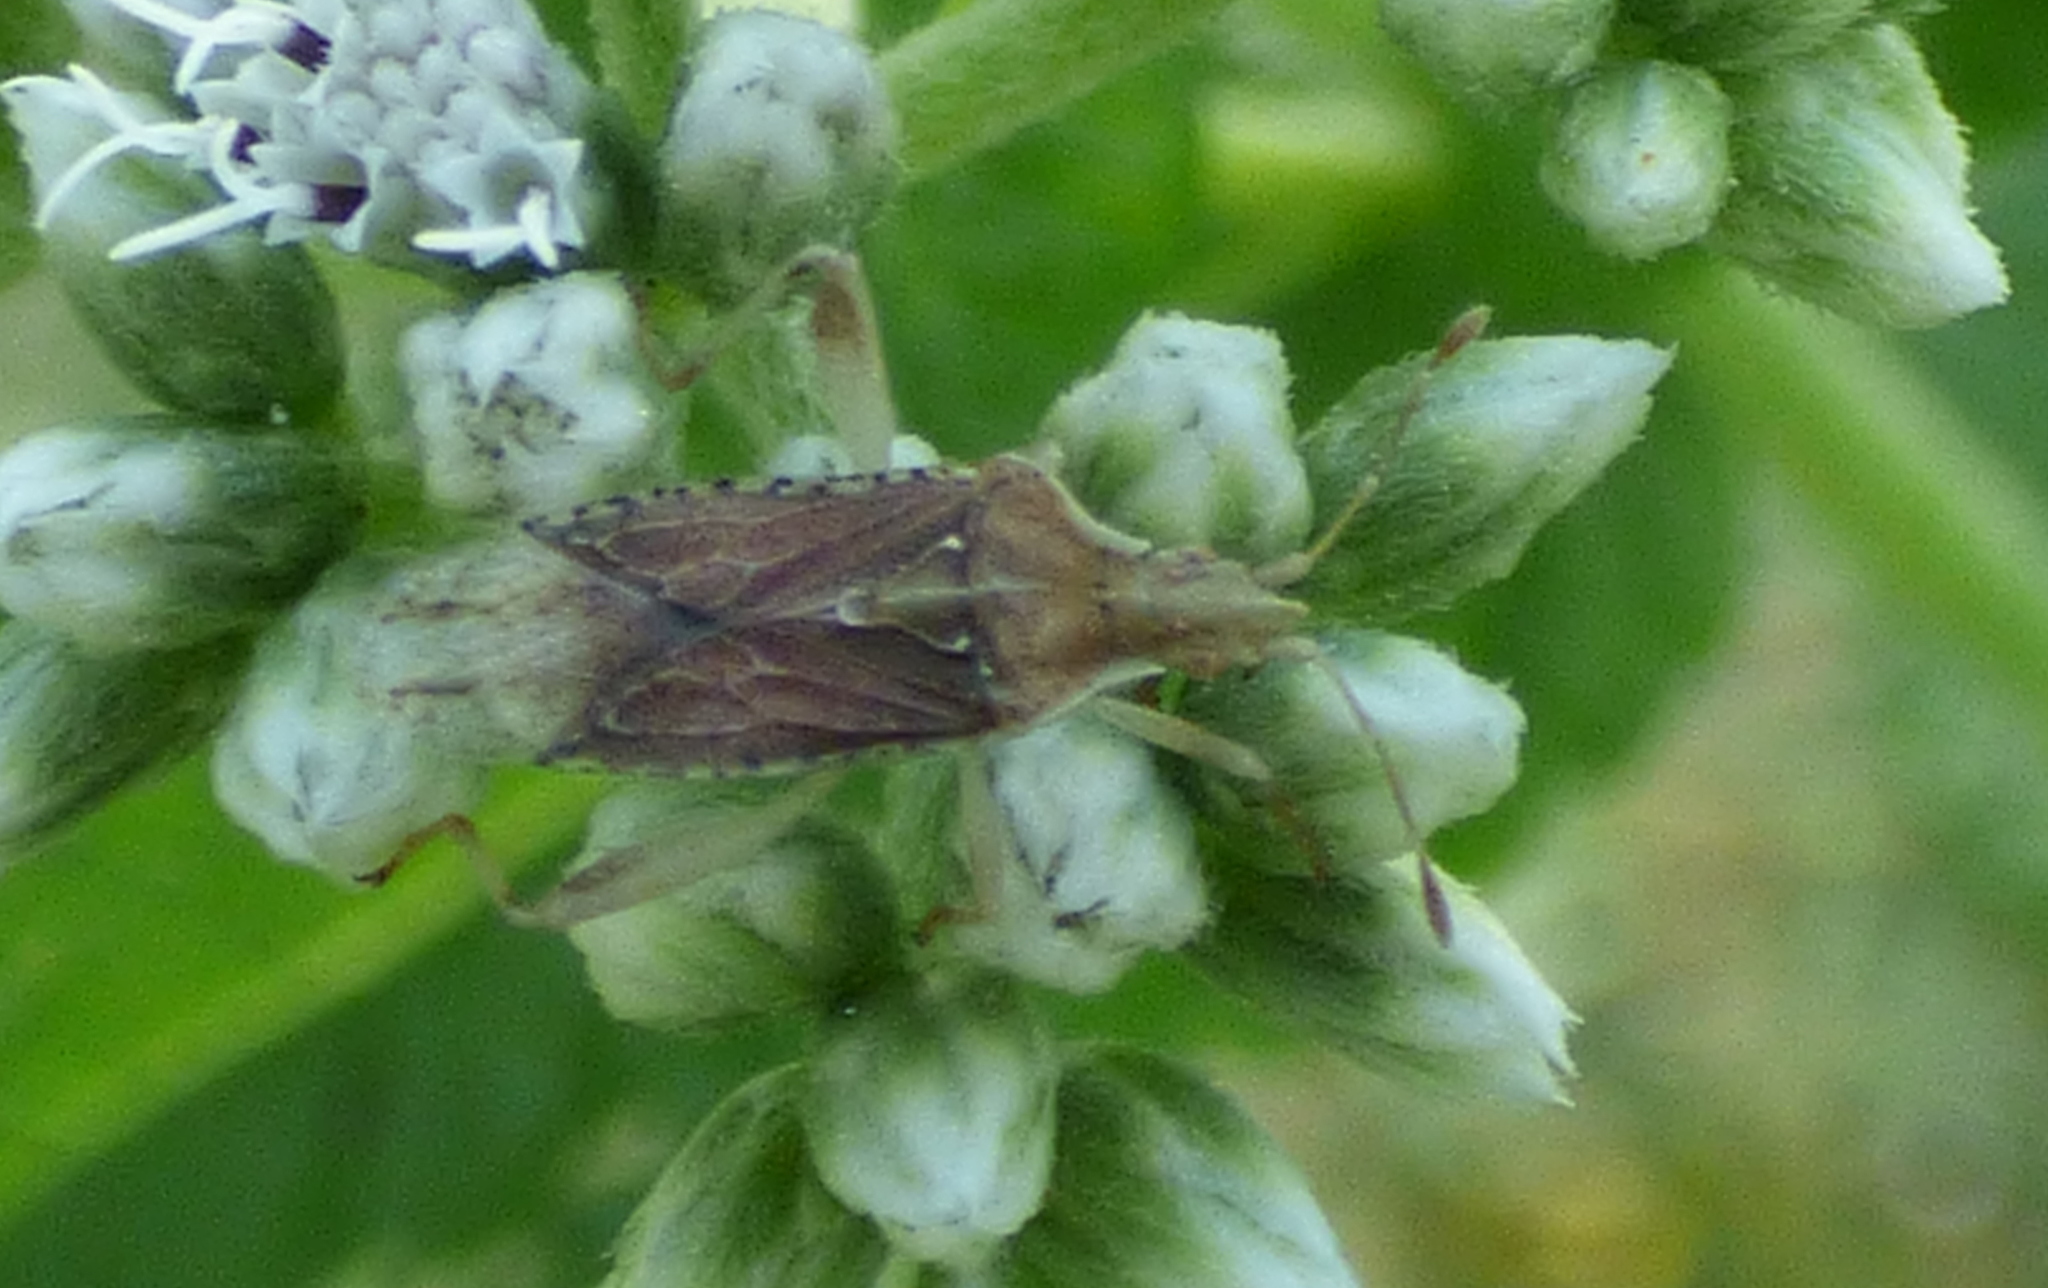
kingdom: Animalia
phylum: Arthropoda
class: Insecta
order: Hemiptera
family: Rhopalidae
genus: Harmostes
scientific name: Harmostes fraterculus
